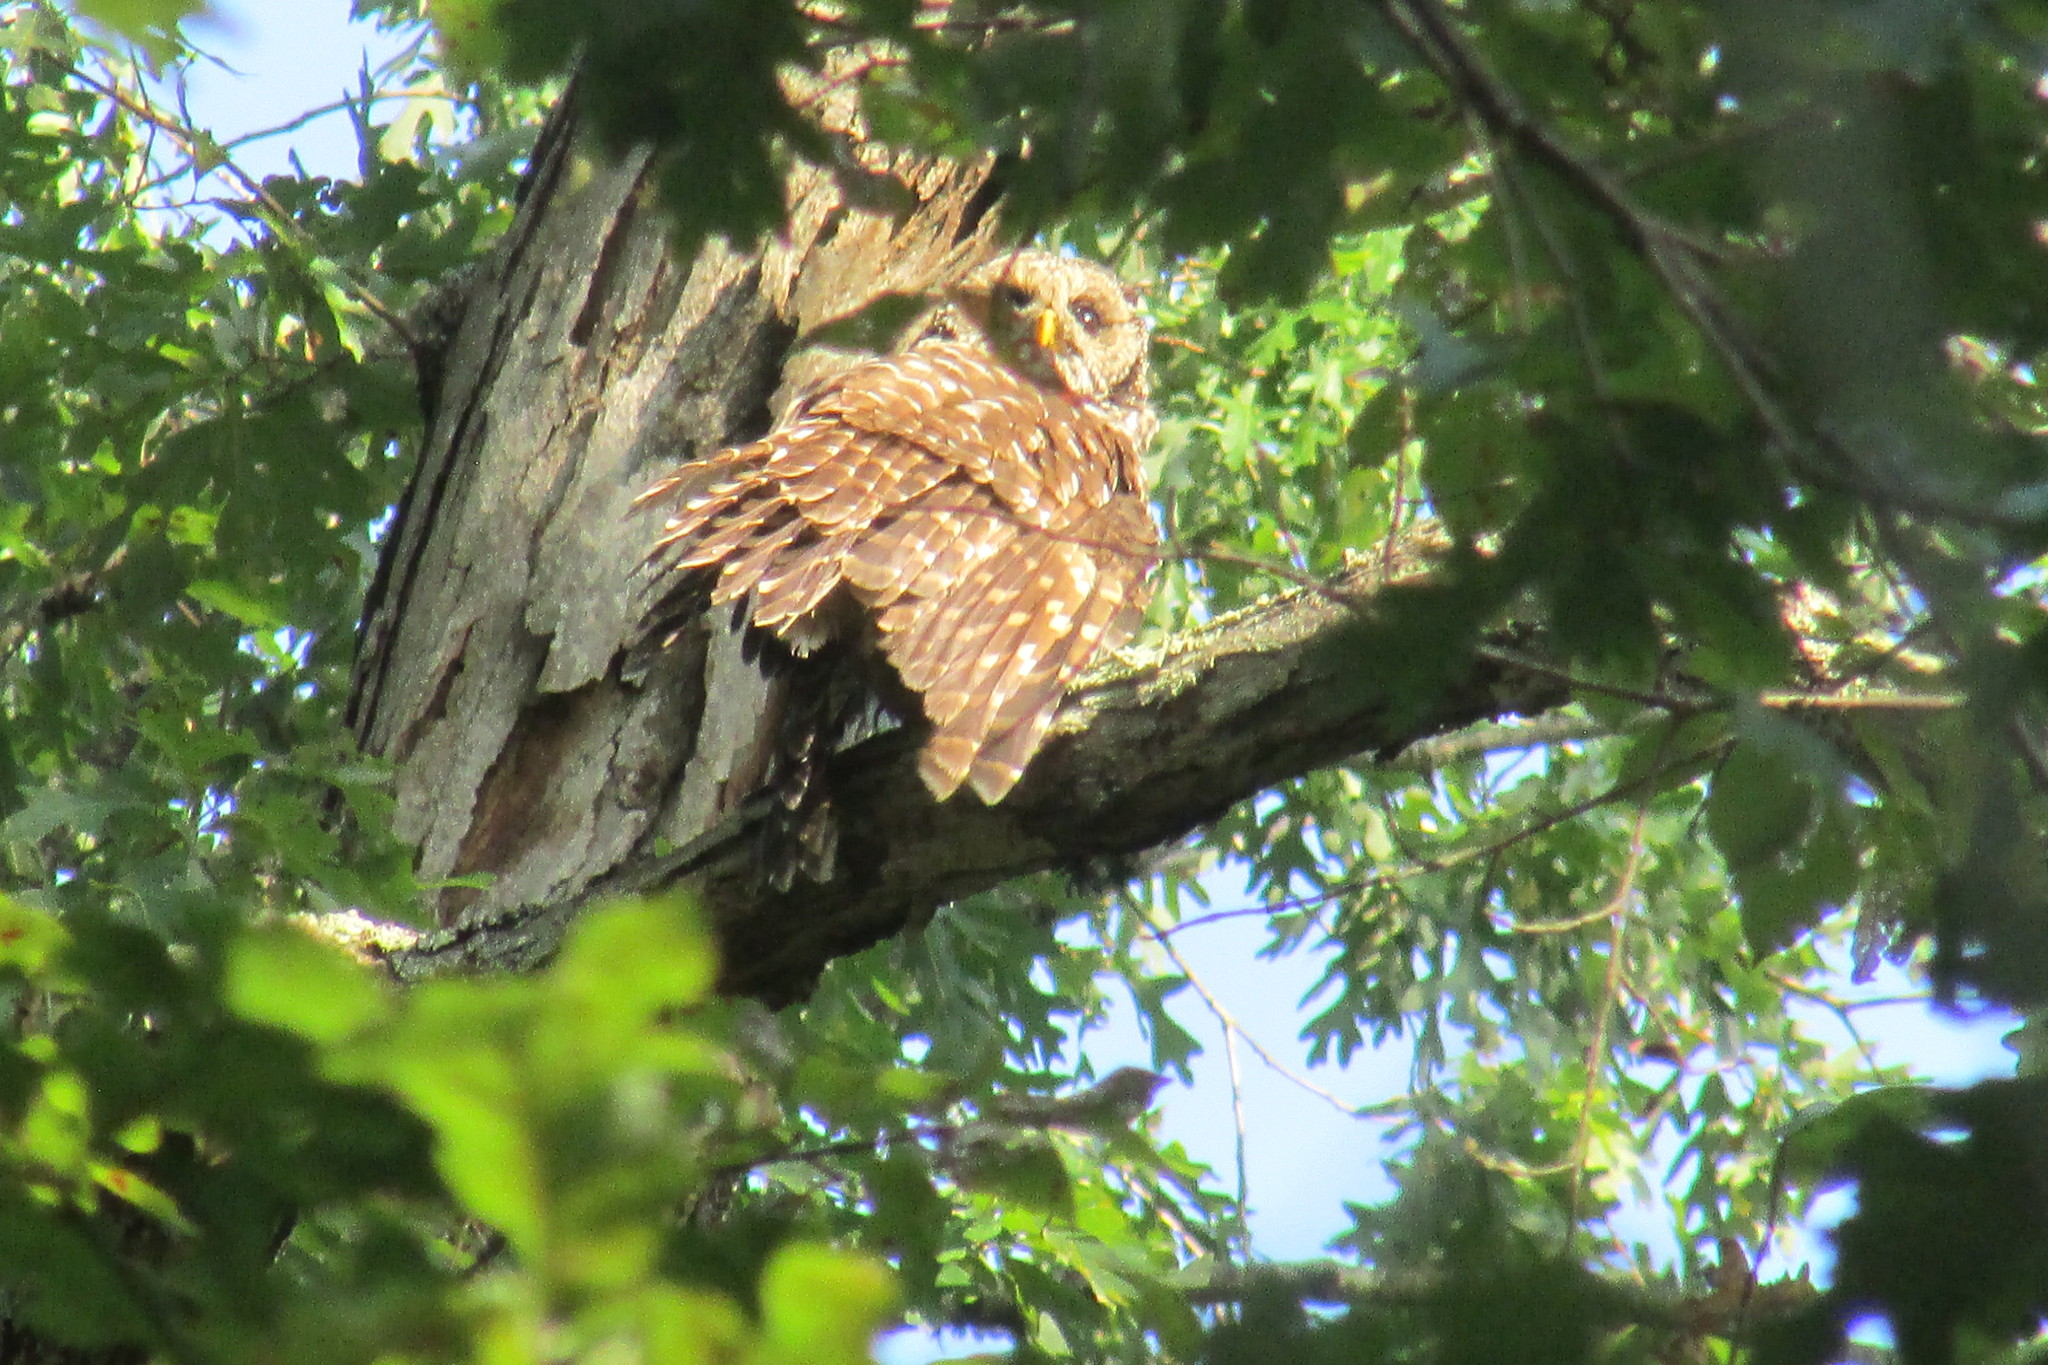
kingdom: Animalia
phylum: Chordata
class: Aves
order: Strigiformes
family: Strigidae
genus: Strix
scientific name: Strix varia
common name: Barred owl
